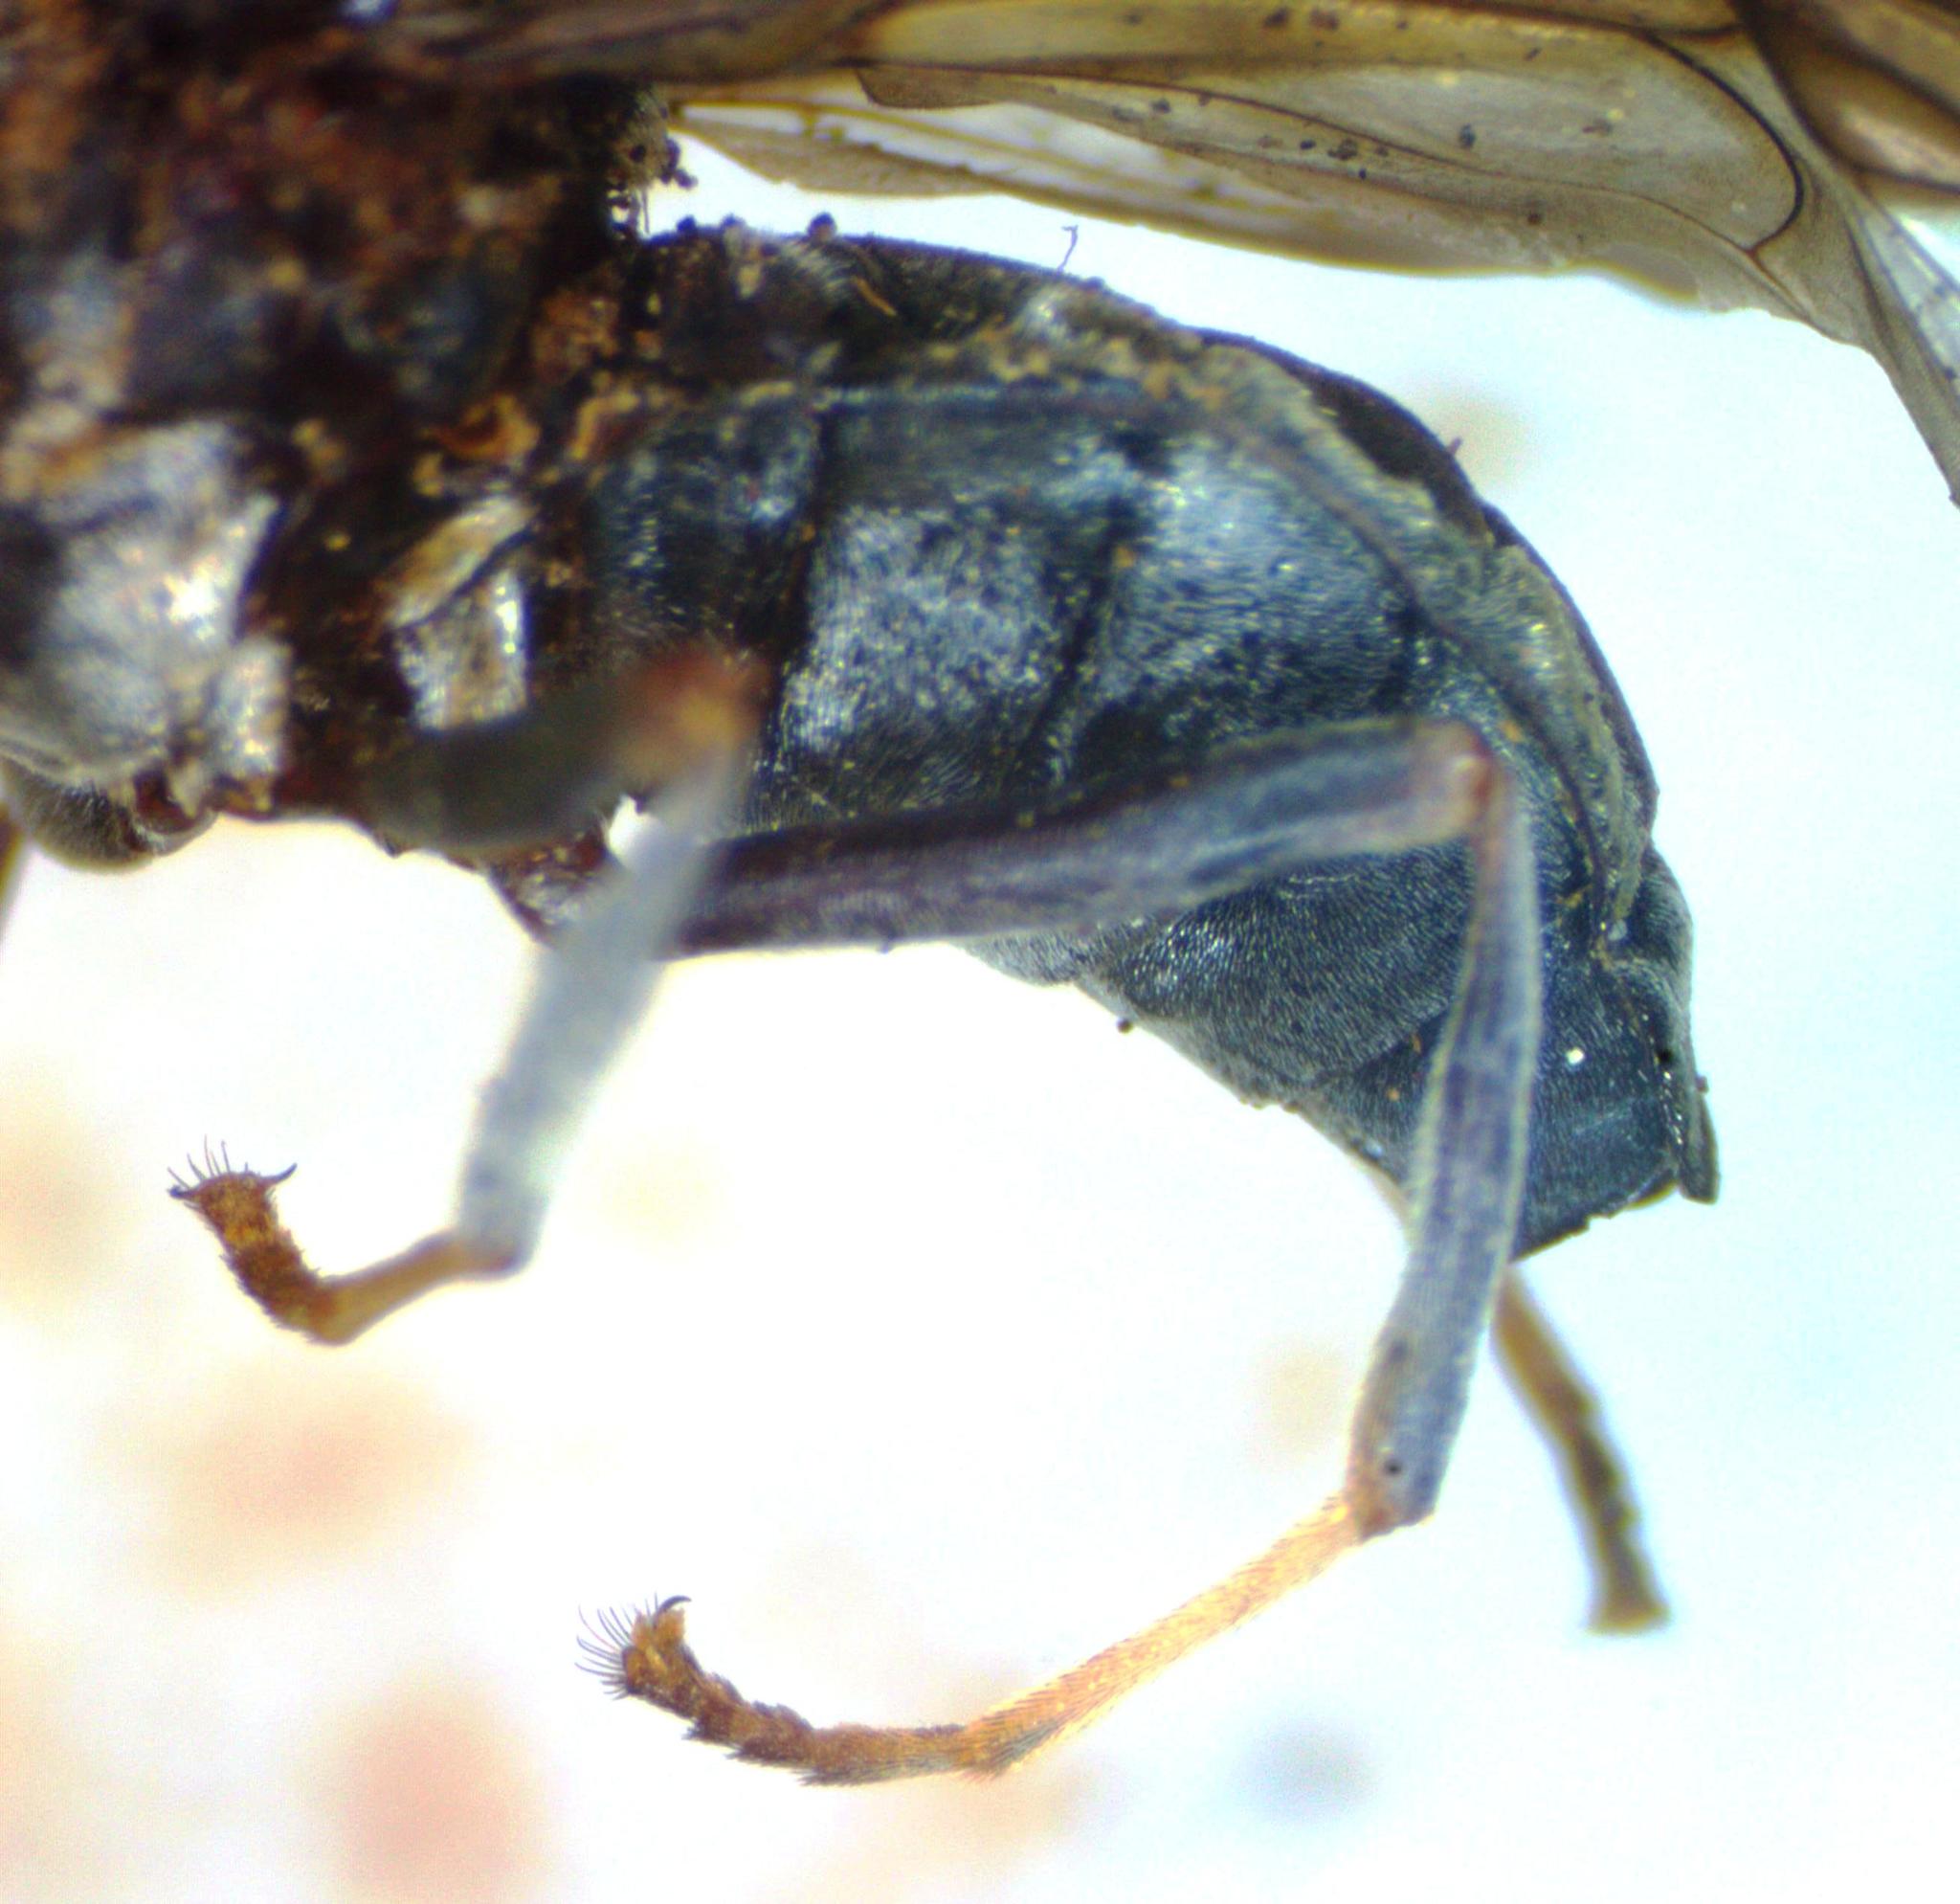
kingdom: Animalia
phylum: Arthropoda
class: Insecta
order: Diptera
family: Stratiomyidae
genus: Cyphomyia
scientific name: Cyphomyia albitarsis
